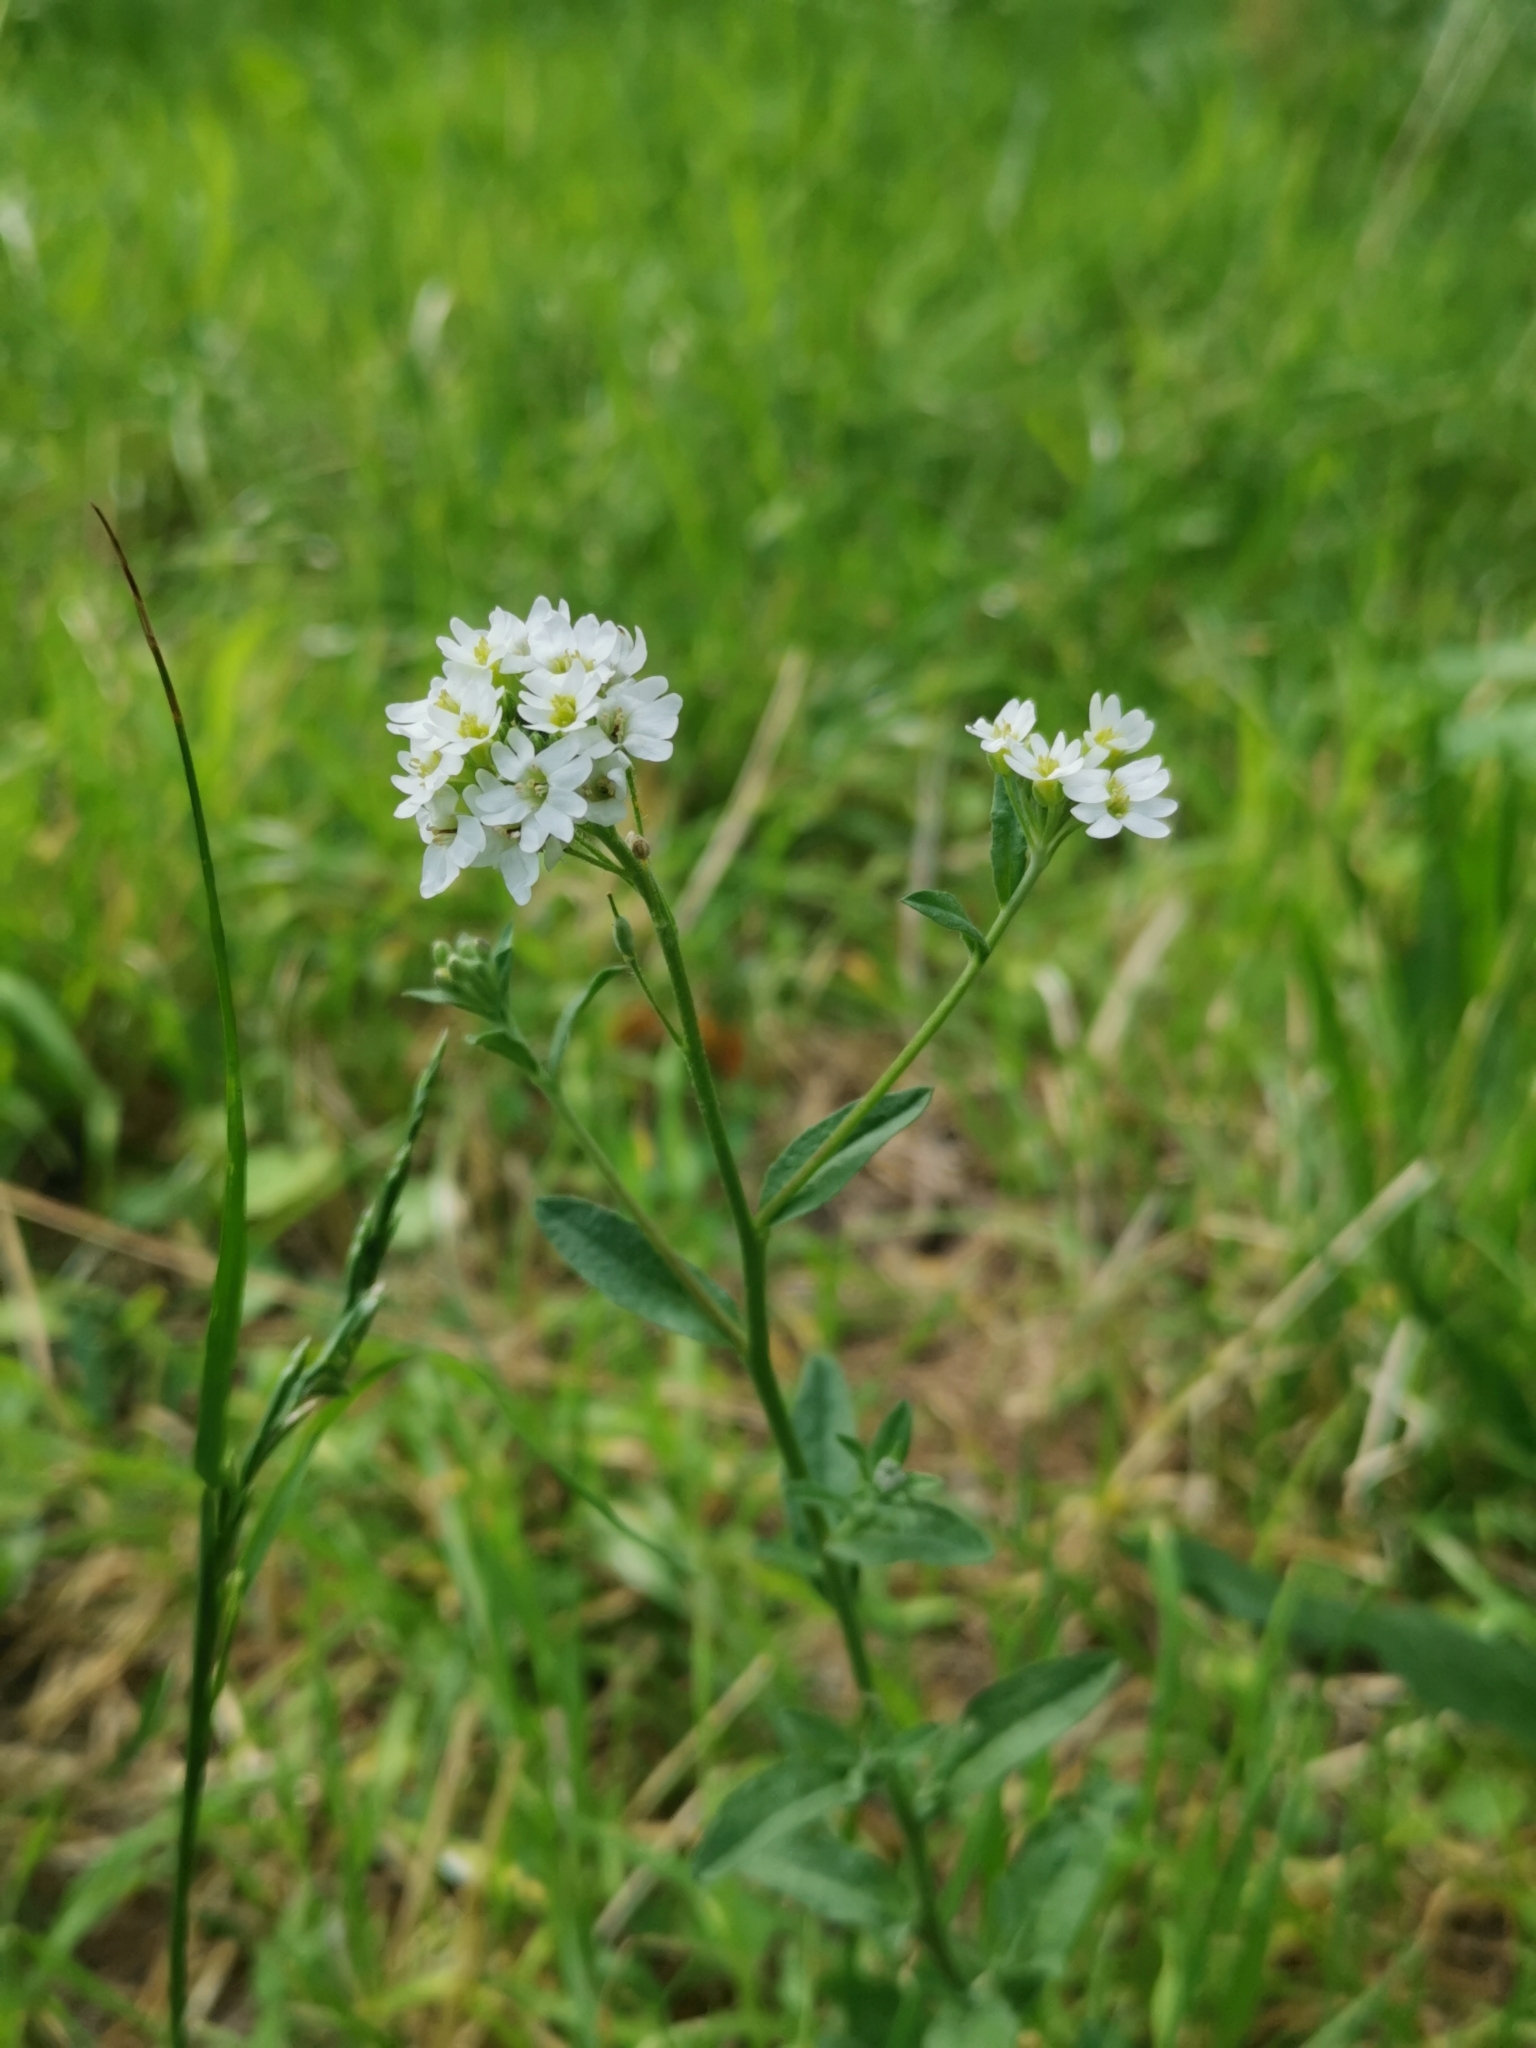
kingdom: Plantae
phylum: Tracheophyta
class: Magnoliopsida
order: Brassicales
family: Brassicaceae
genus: Berteroa
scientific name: Berteroa incana
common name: Hoary alison
